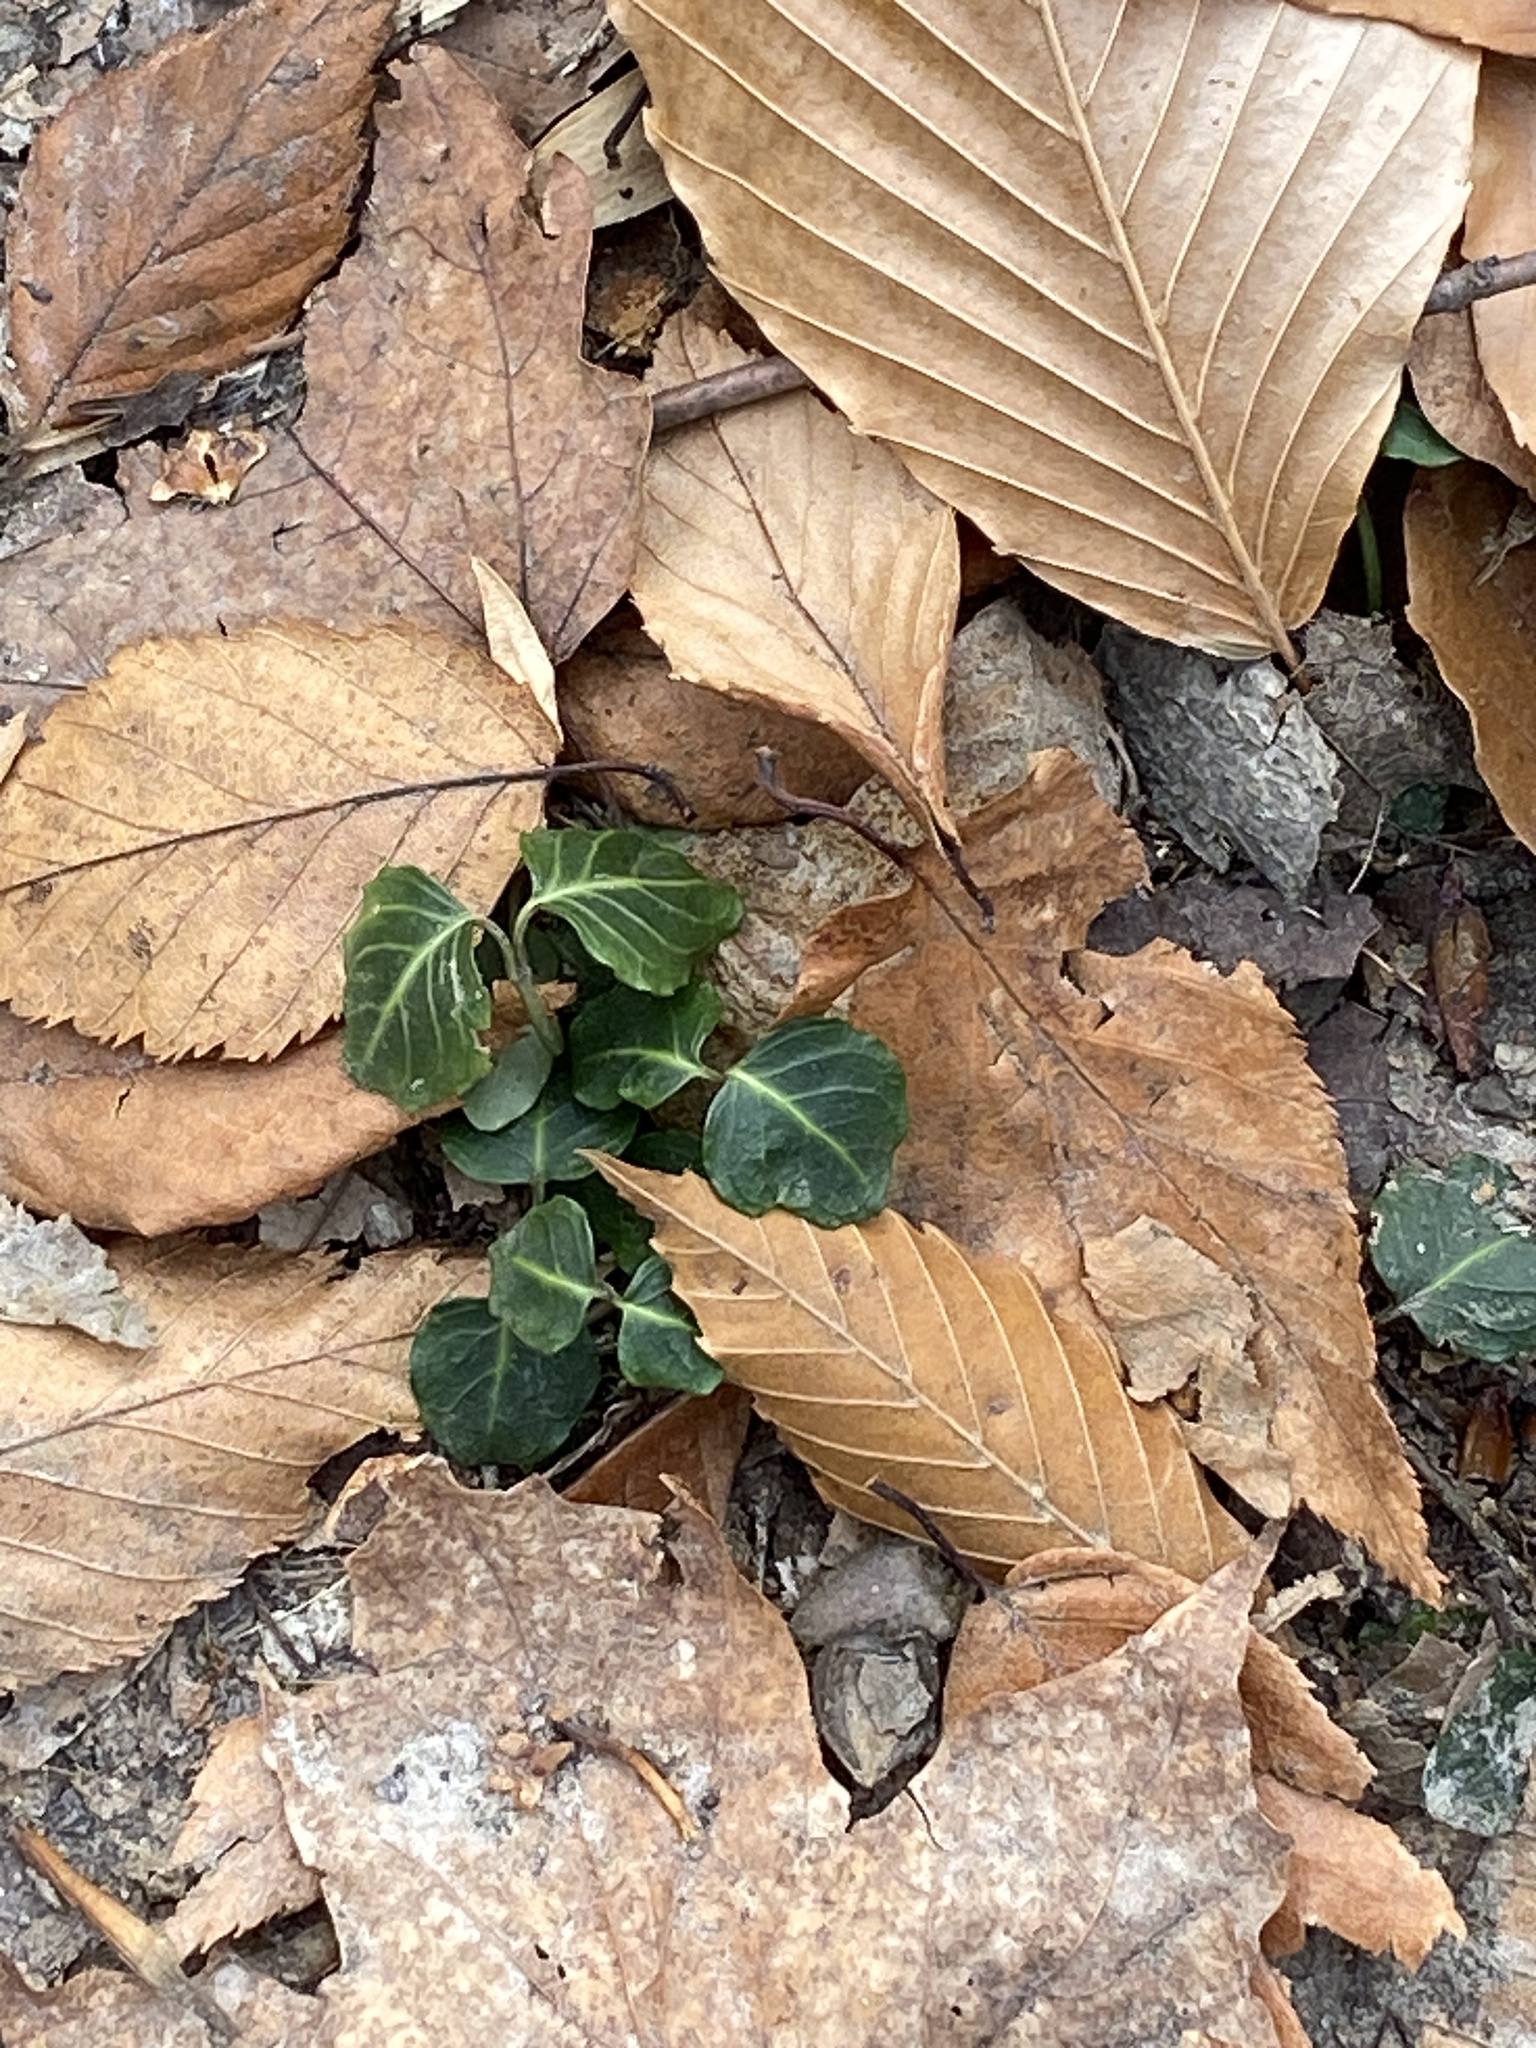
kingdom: Plantae
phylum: Tracheophyta
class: Magnoliopsida
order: Gentianales
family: Rubiaceae
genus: Mitchella
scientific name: Mitchella repens
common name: Partridge-berry
